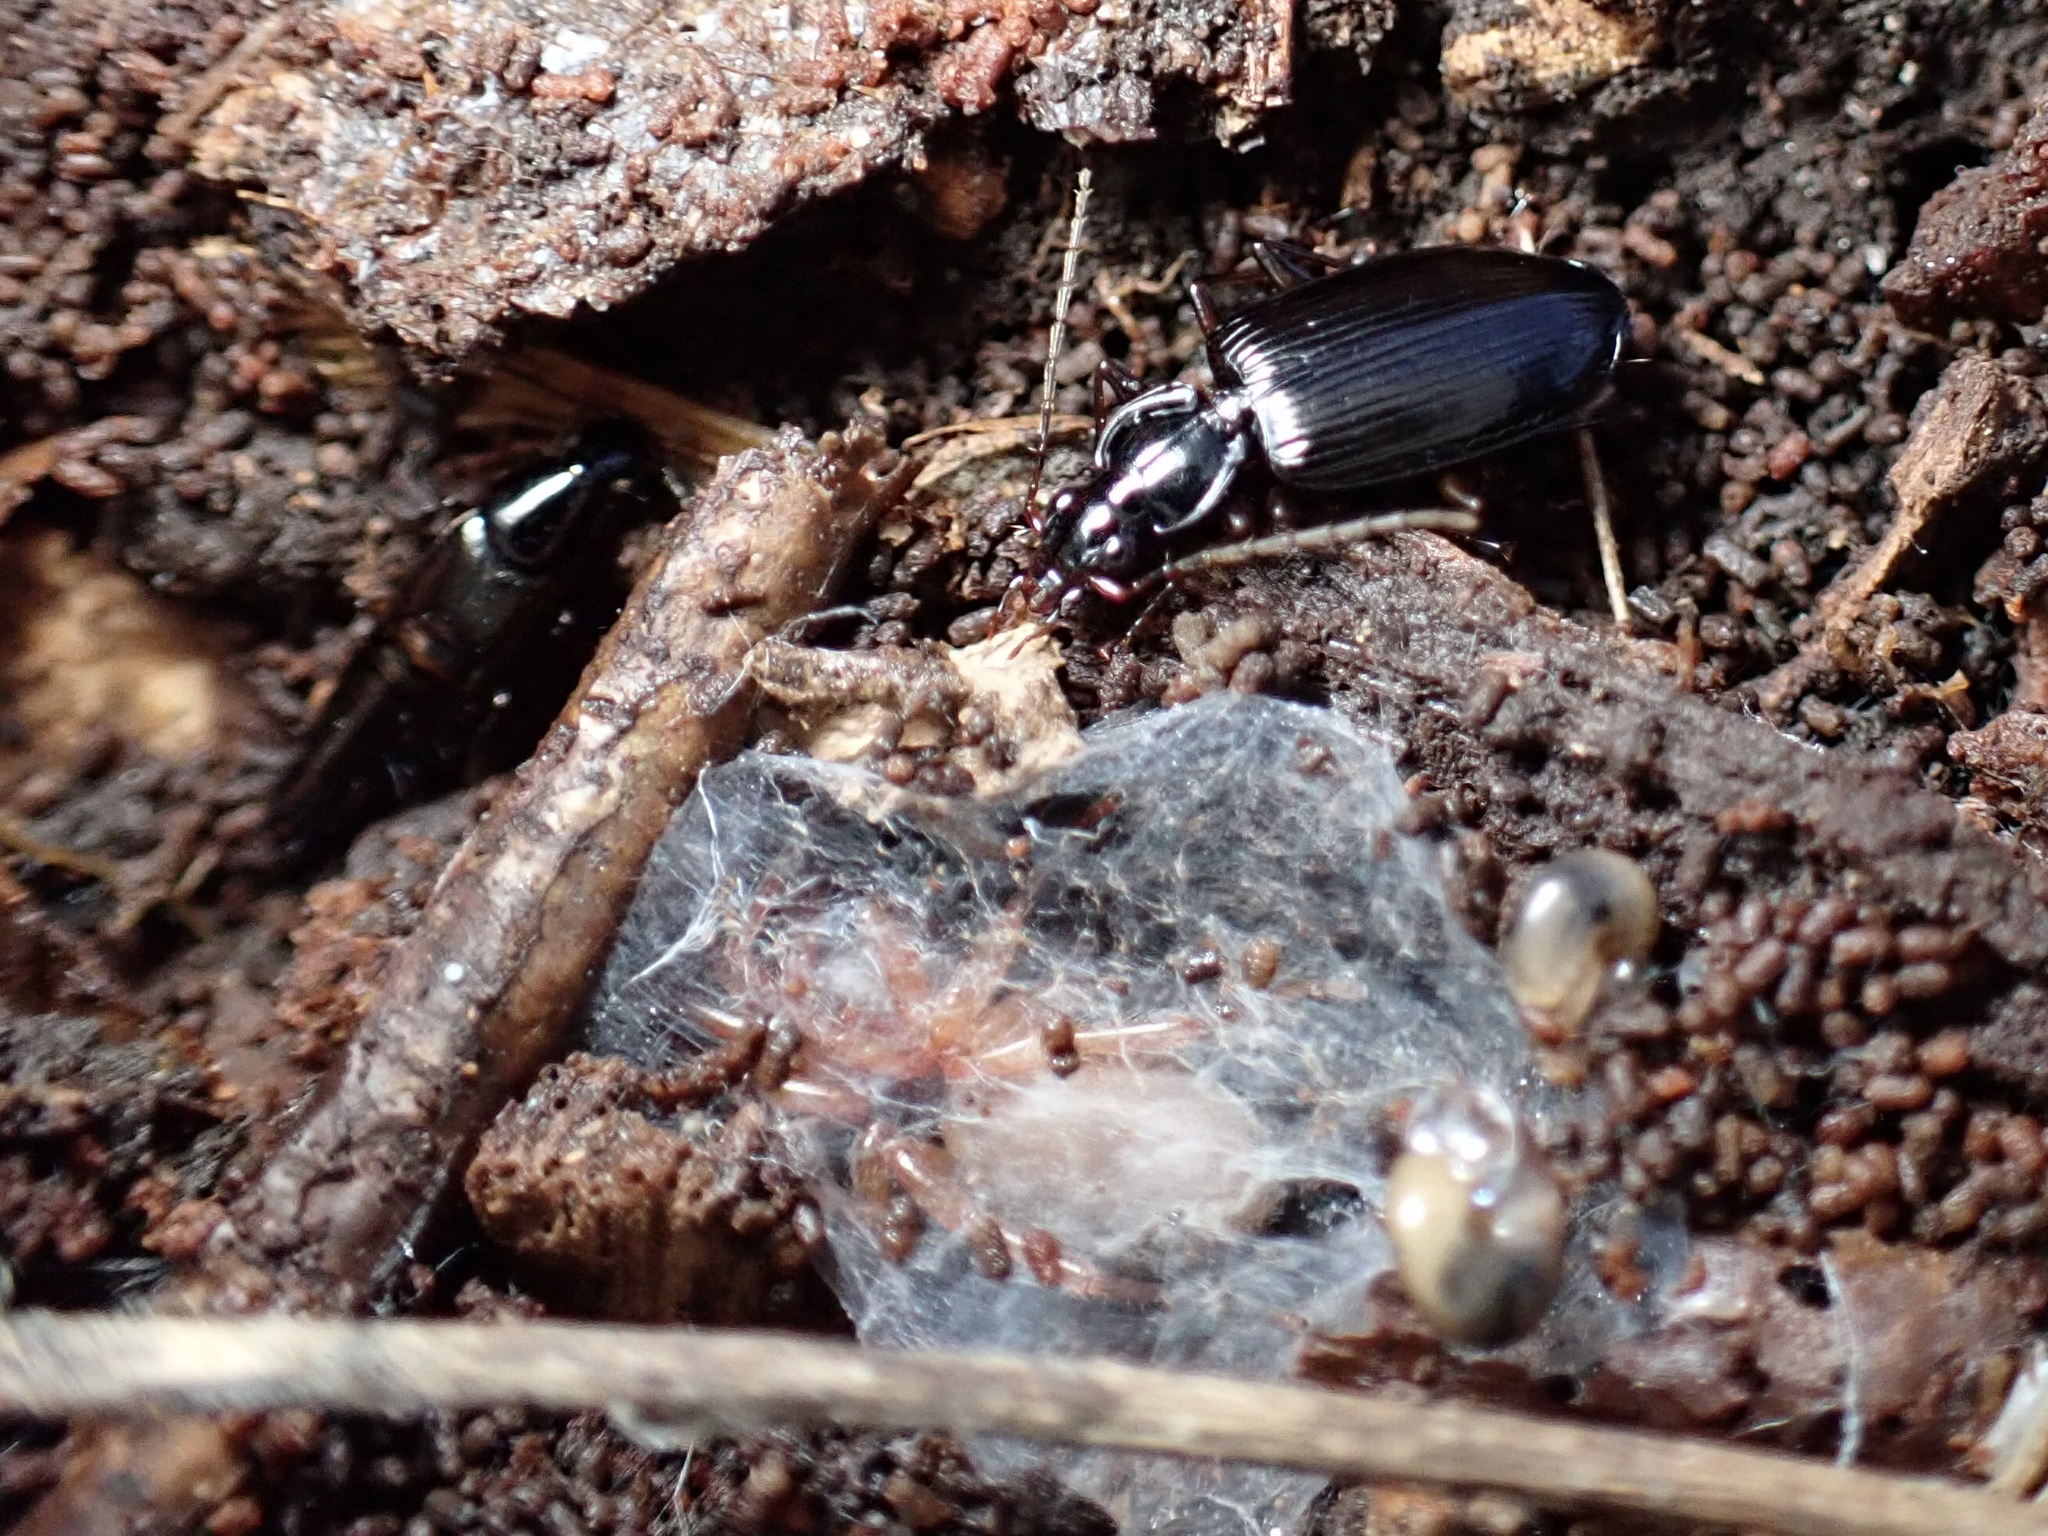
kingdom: Animalia
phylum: Arthropoda
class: Arachnida
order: Araneae
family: Dysderidae
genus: Dysdera
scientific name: Dysdera crocata
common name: Woodlouse spider
